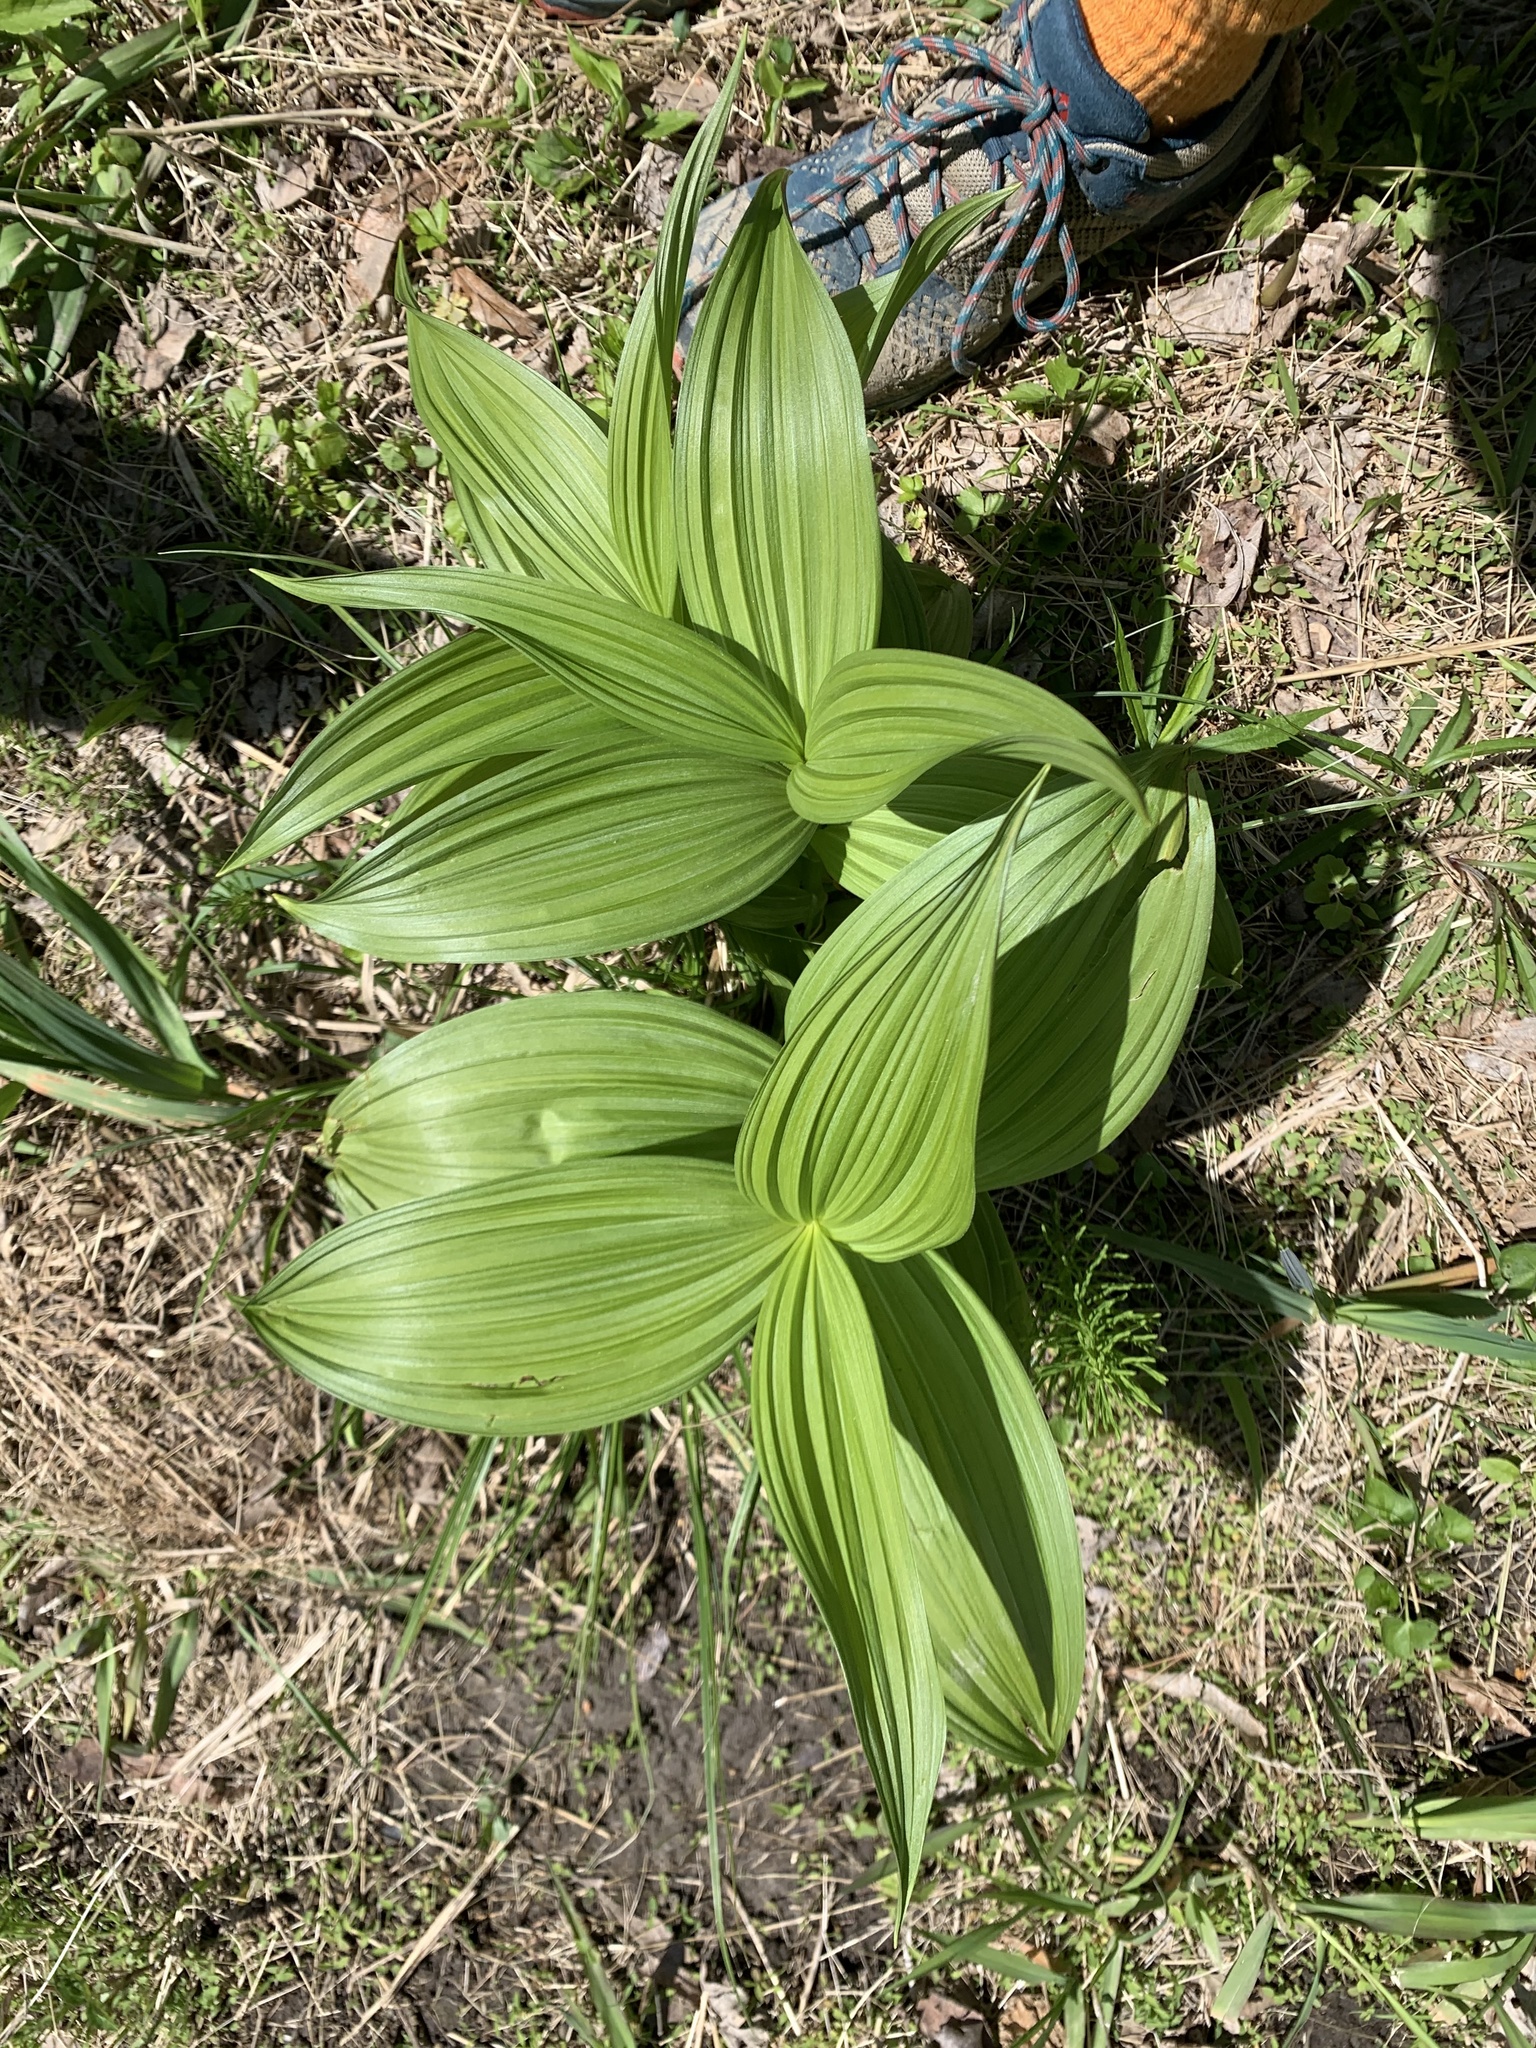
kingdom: Plantae
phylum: Tracheophyta
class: Liliopsida
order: Liliales
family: Melanthiaceae
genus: Veratrum
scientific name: Veratrum viride
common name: American false hellebore
